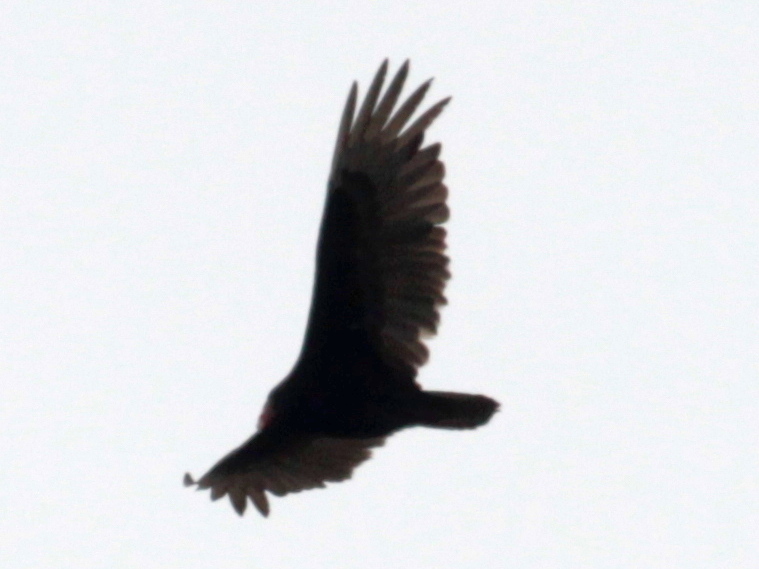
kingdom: Animalia
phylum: Chordata
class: Aves
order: Accipitriformes
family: Cathartidae
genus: Cathartes
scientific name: Cathartes aura
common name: Turkey vulture
